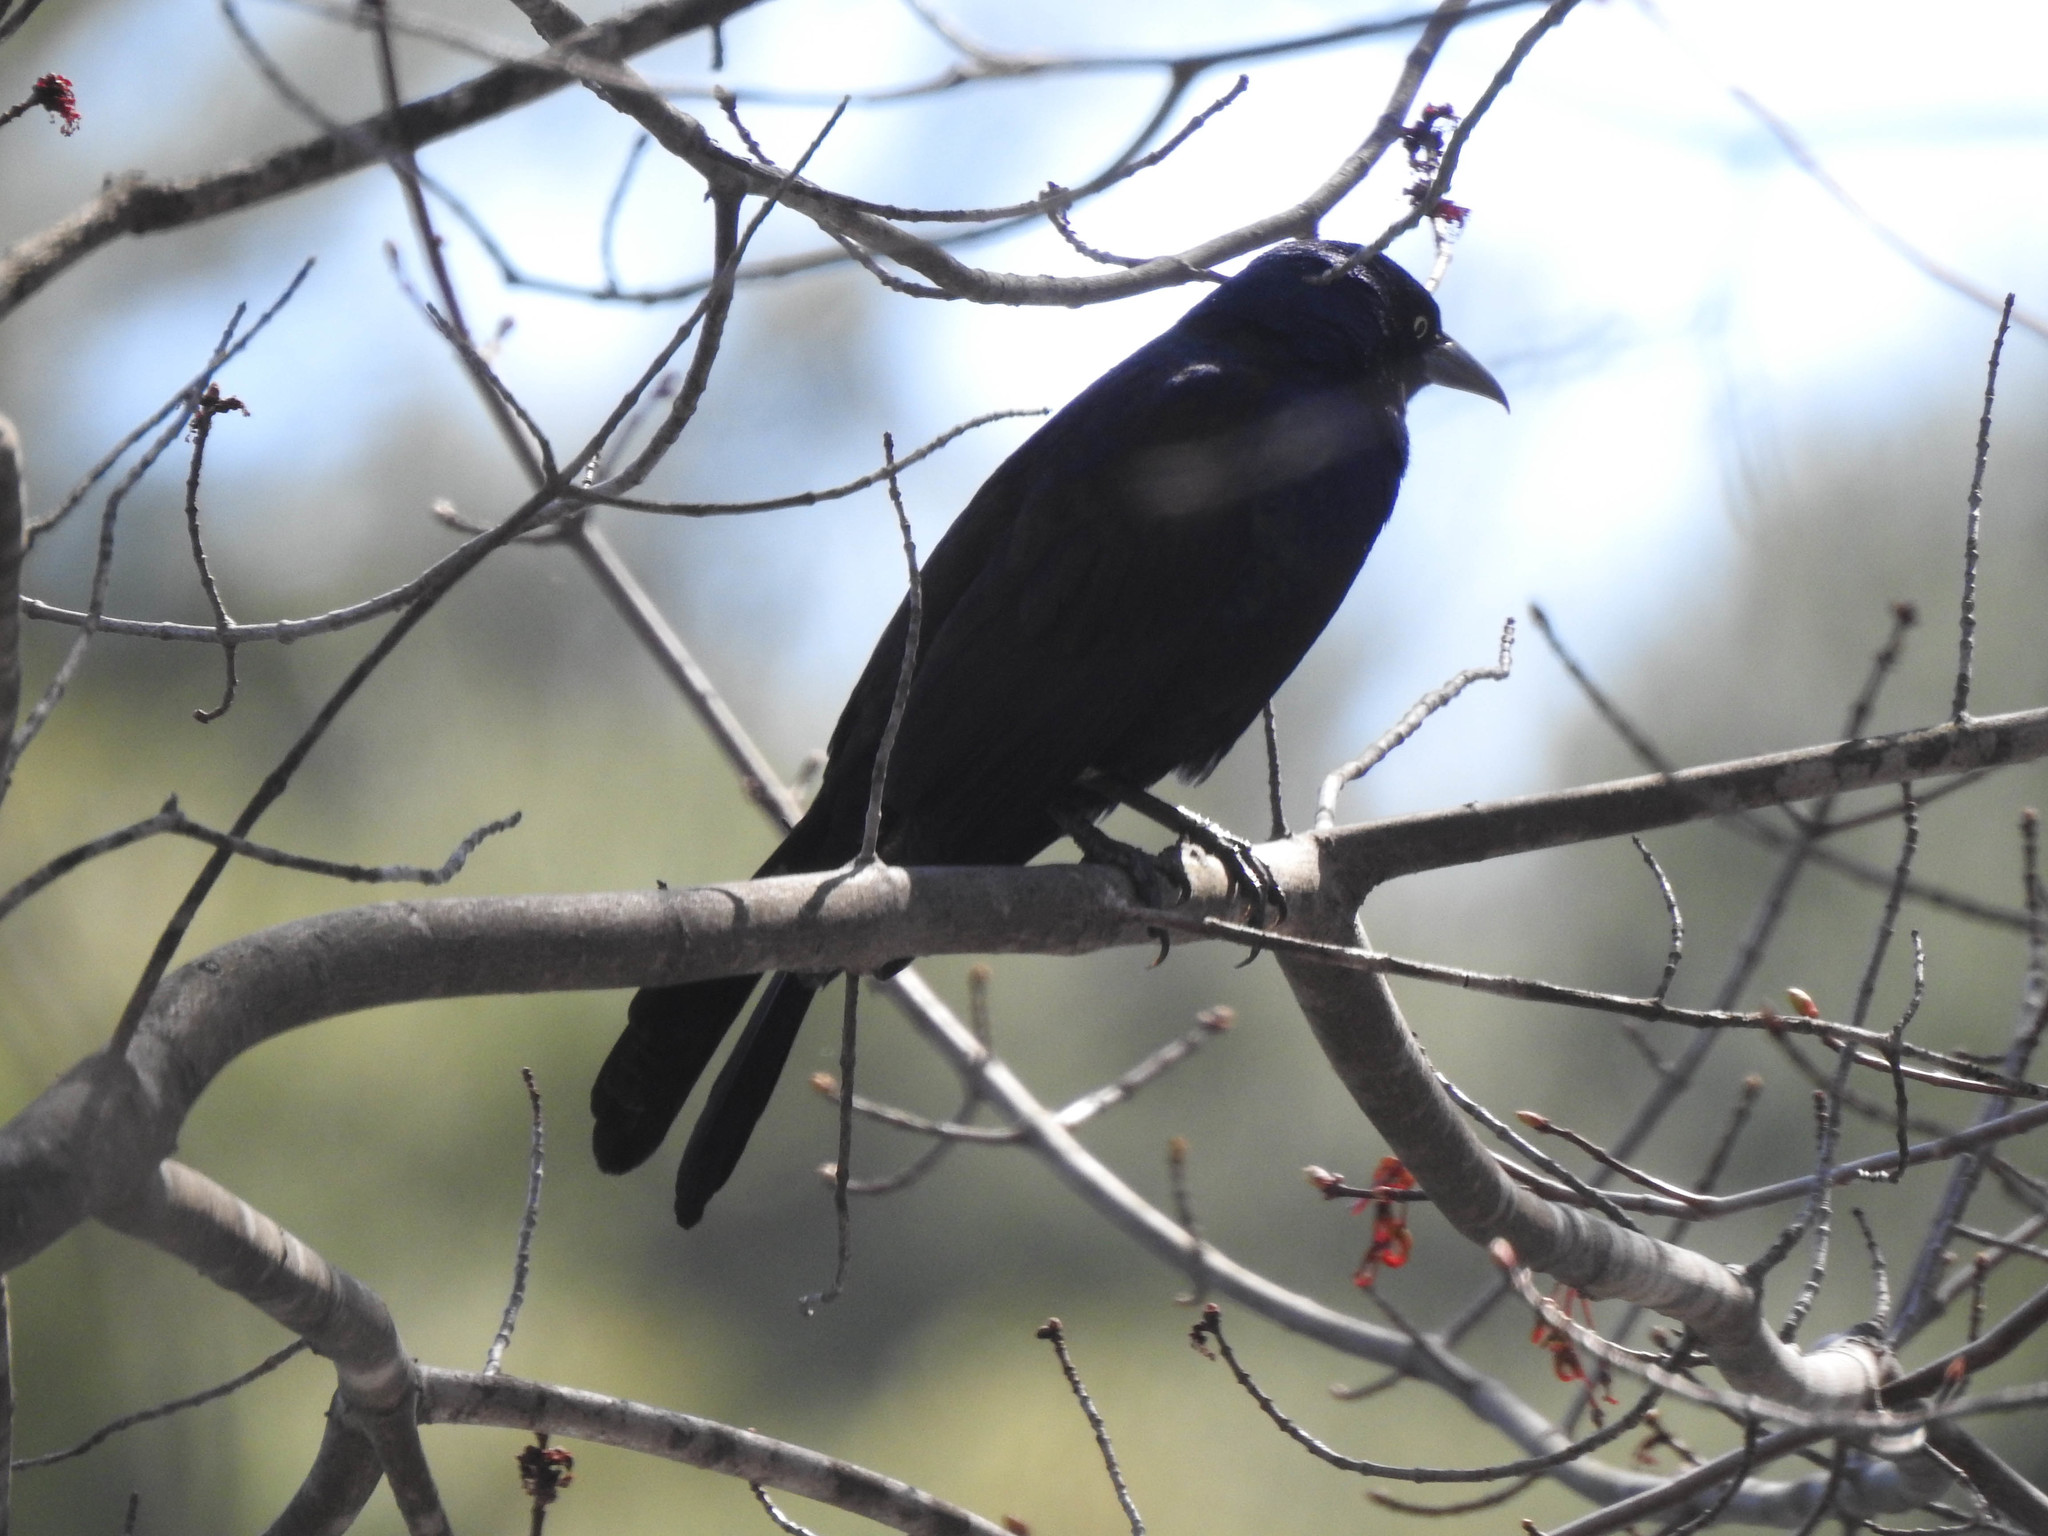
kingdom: Animalia
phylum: Chordata
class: Aves
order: Passeriformes
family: Icteridae
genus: Quiscalus
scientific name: Quiscalus quiscula
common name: Common grackle
